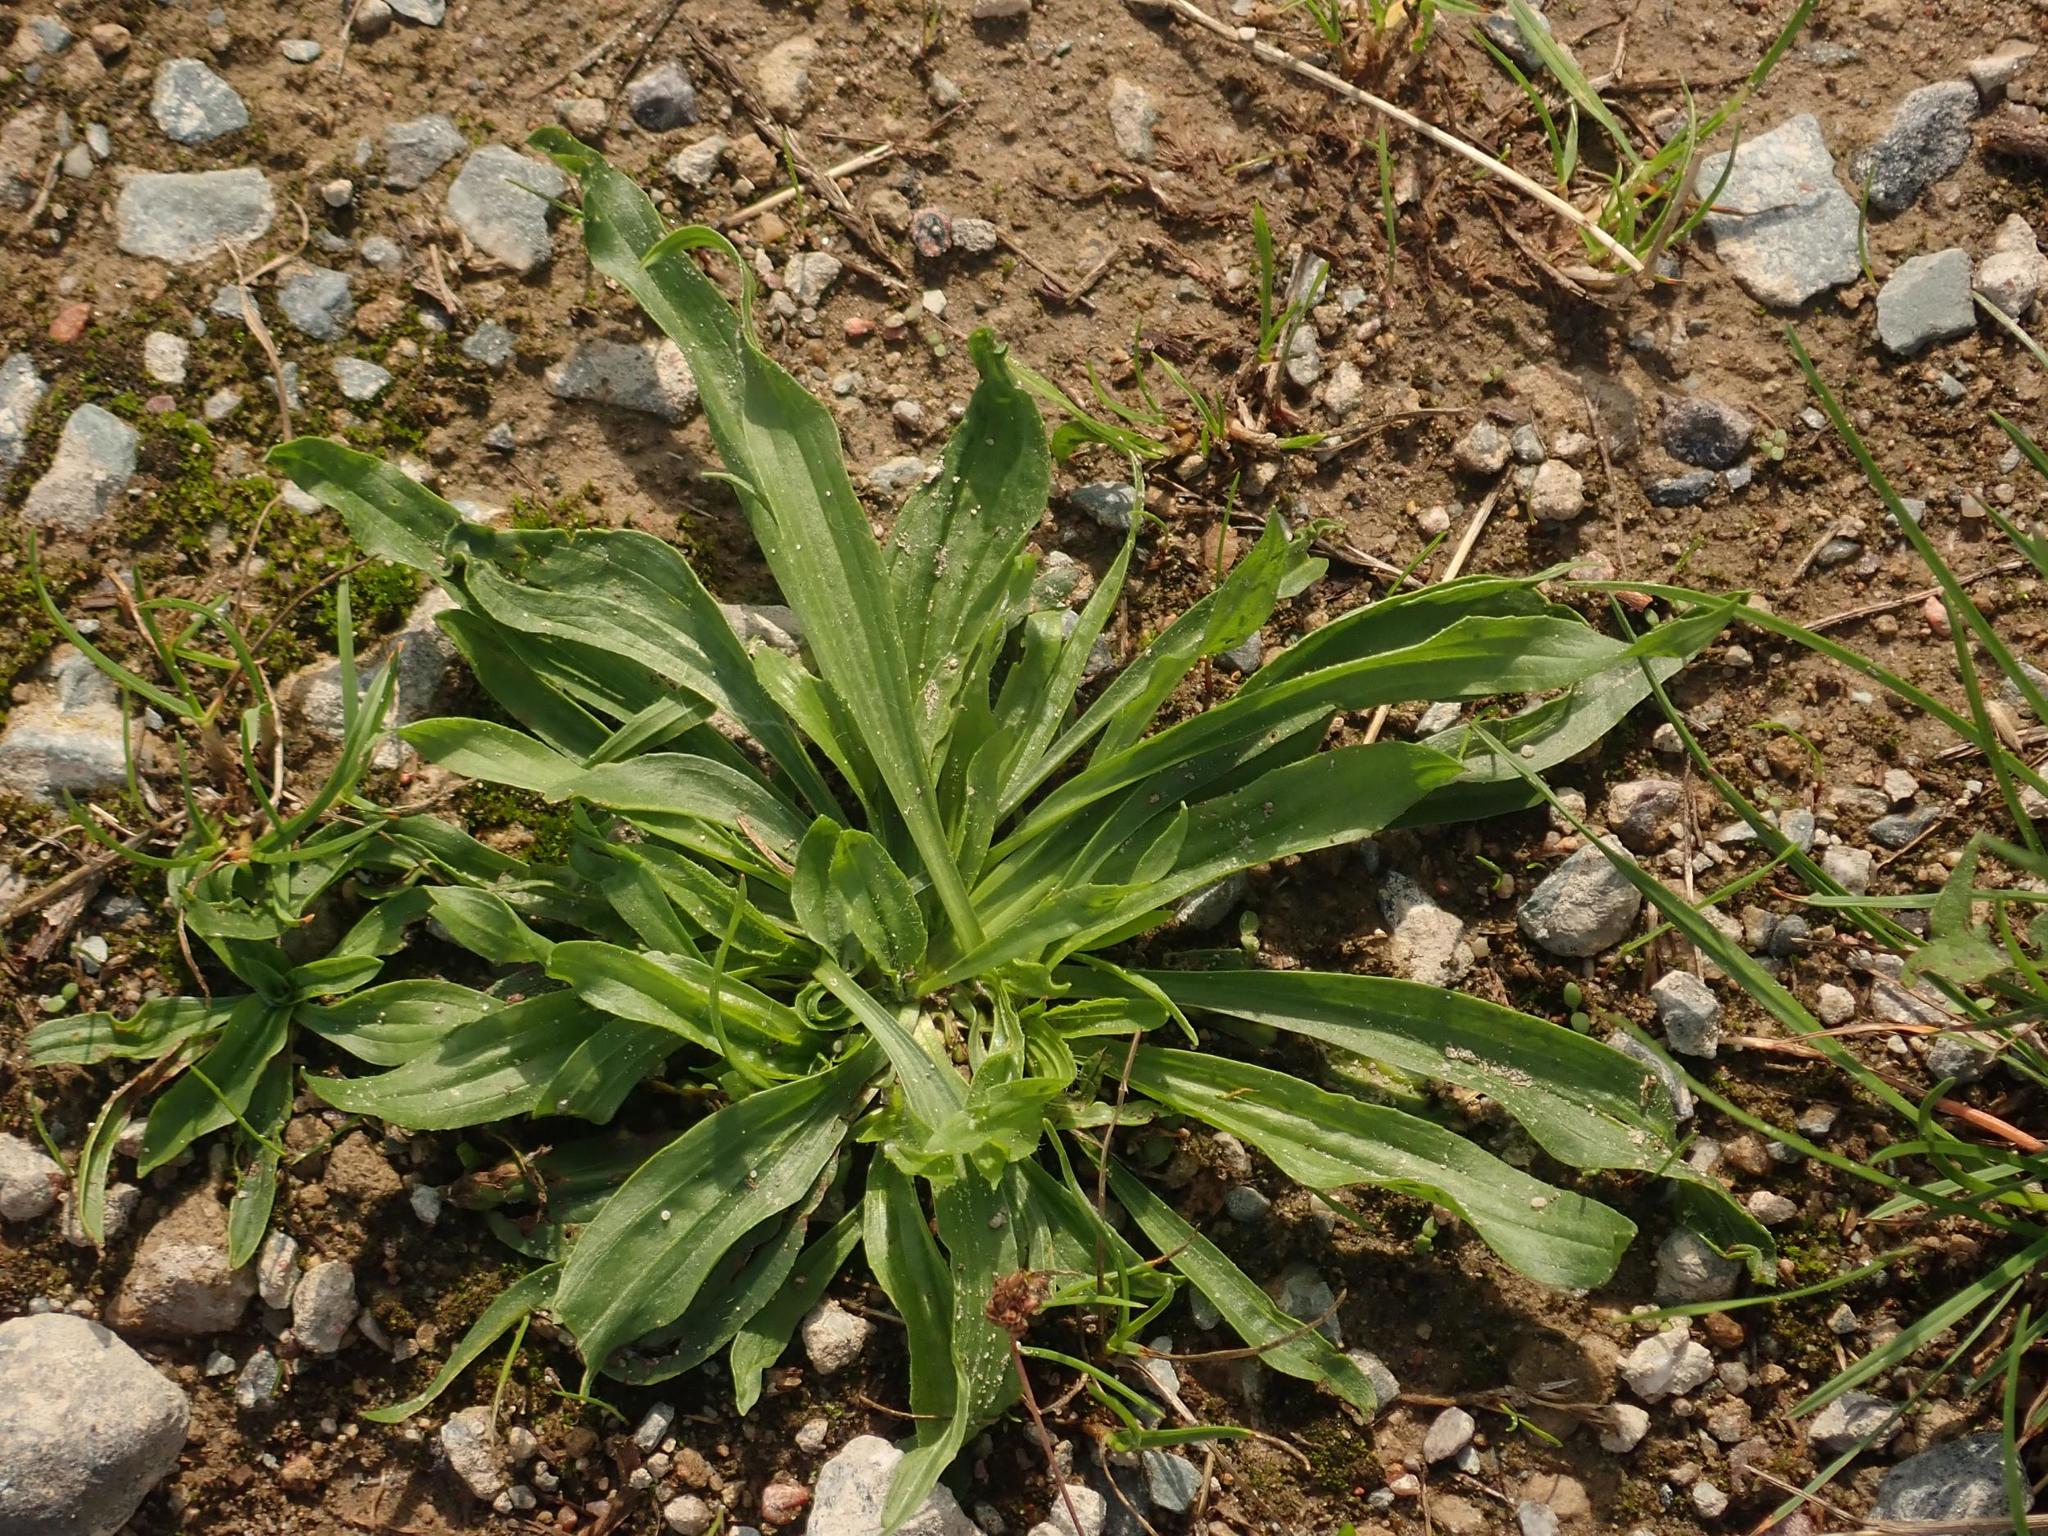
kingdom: Plantae
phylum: Tracheophyta
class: Magnoliopsida
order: Lamiales
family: Plantaginaceae
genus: Plantago
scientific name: Plantago lanceolata
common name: Ribwort plantain
